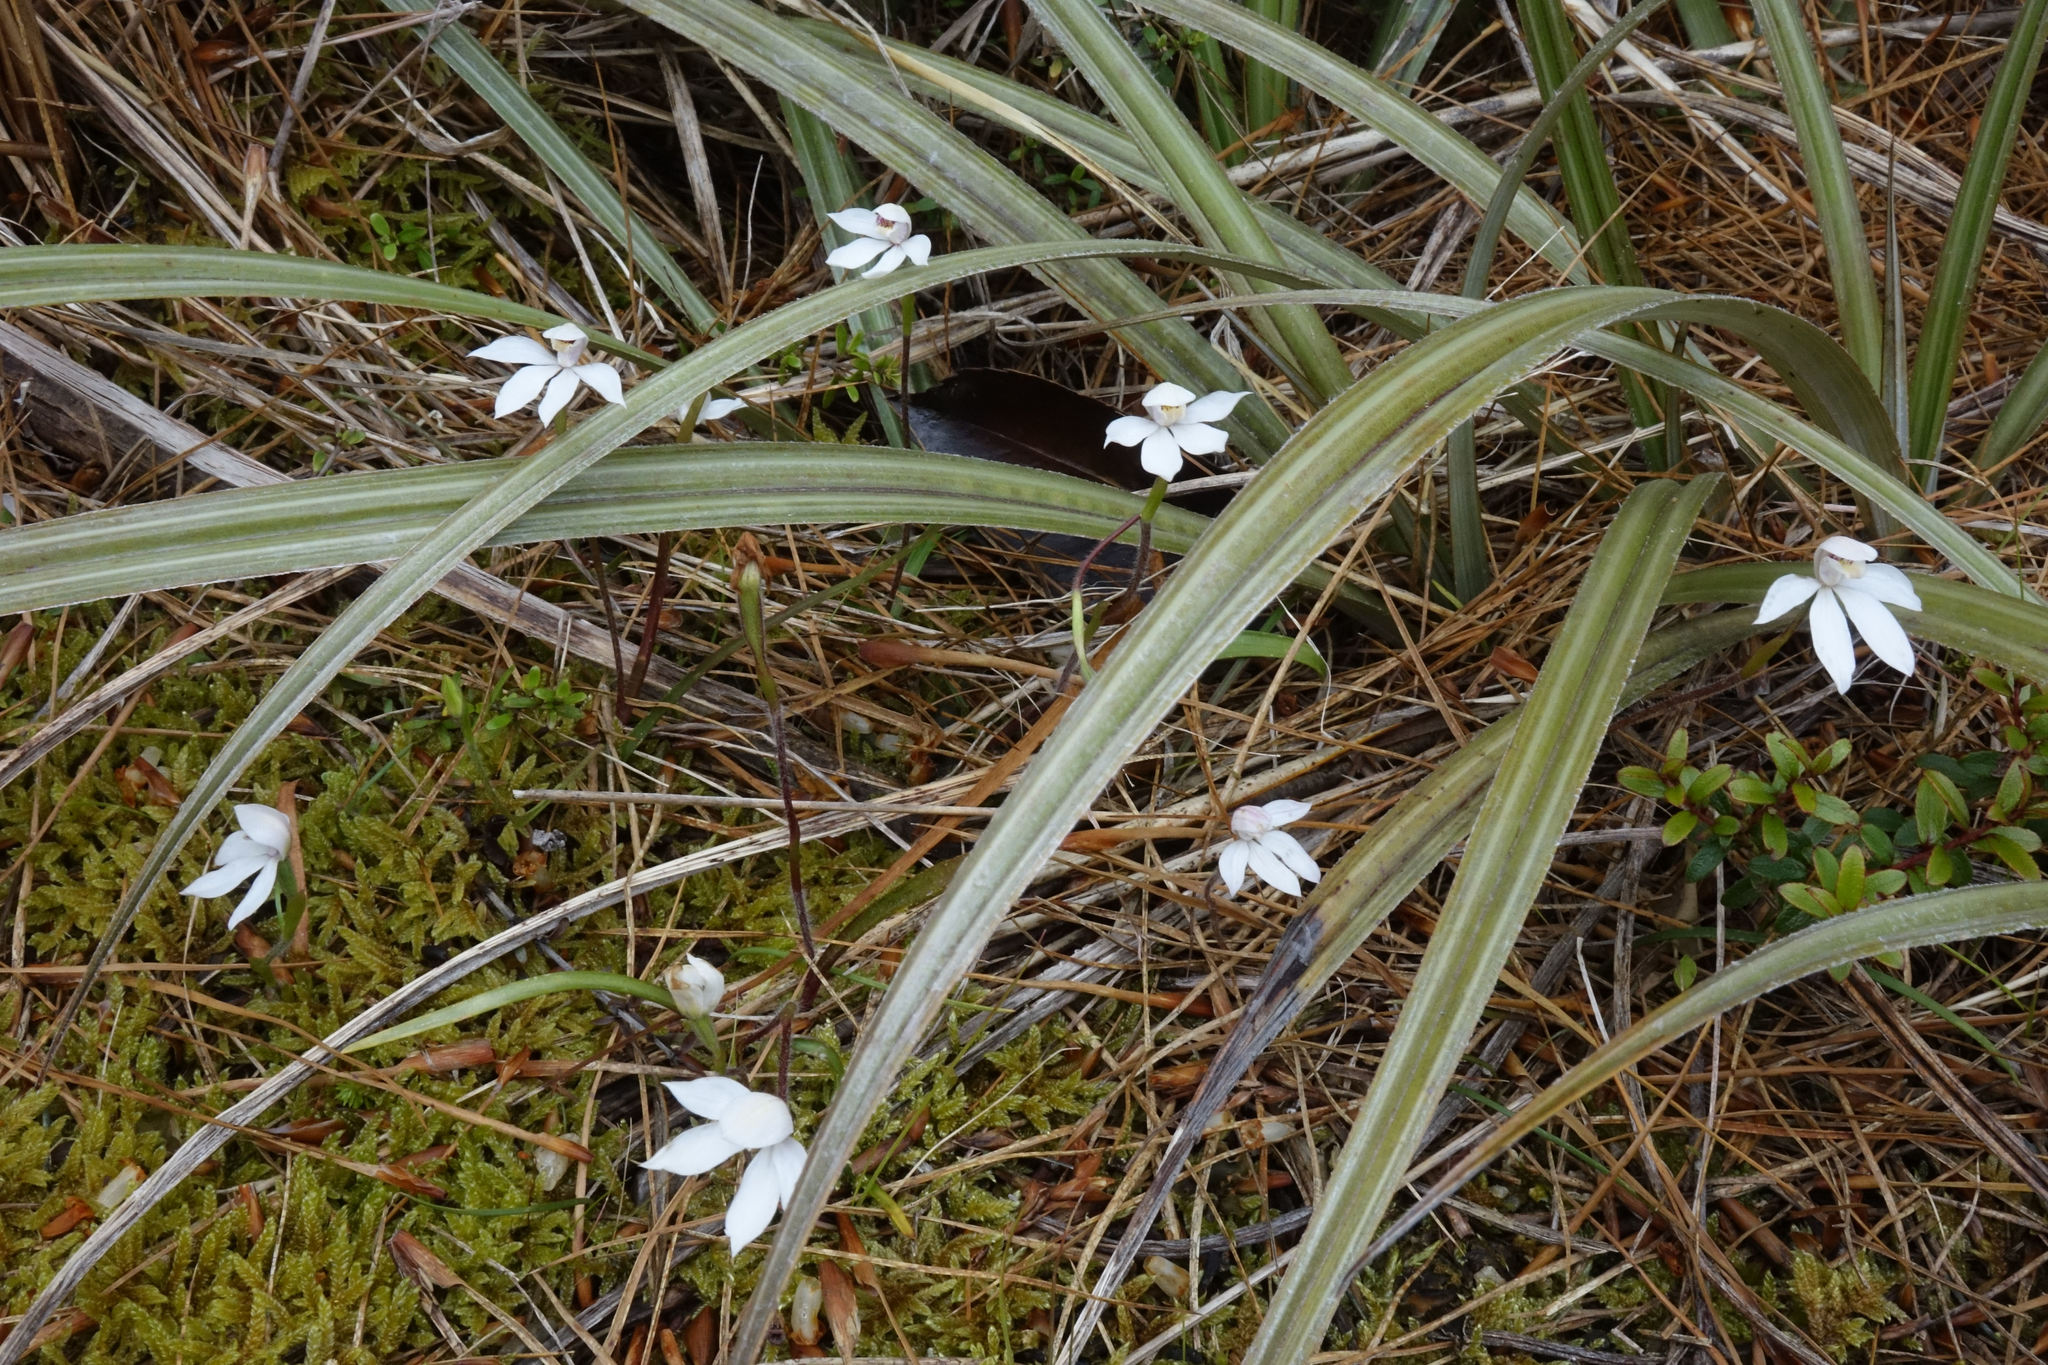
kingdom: Plantae
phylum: Tracheophyta
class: Liliopsida
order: Asparagales
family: Orchidaceae
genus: Caladenia
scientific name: Caladenia lyallii
